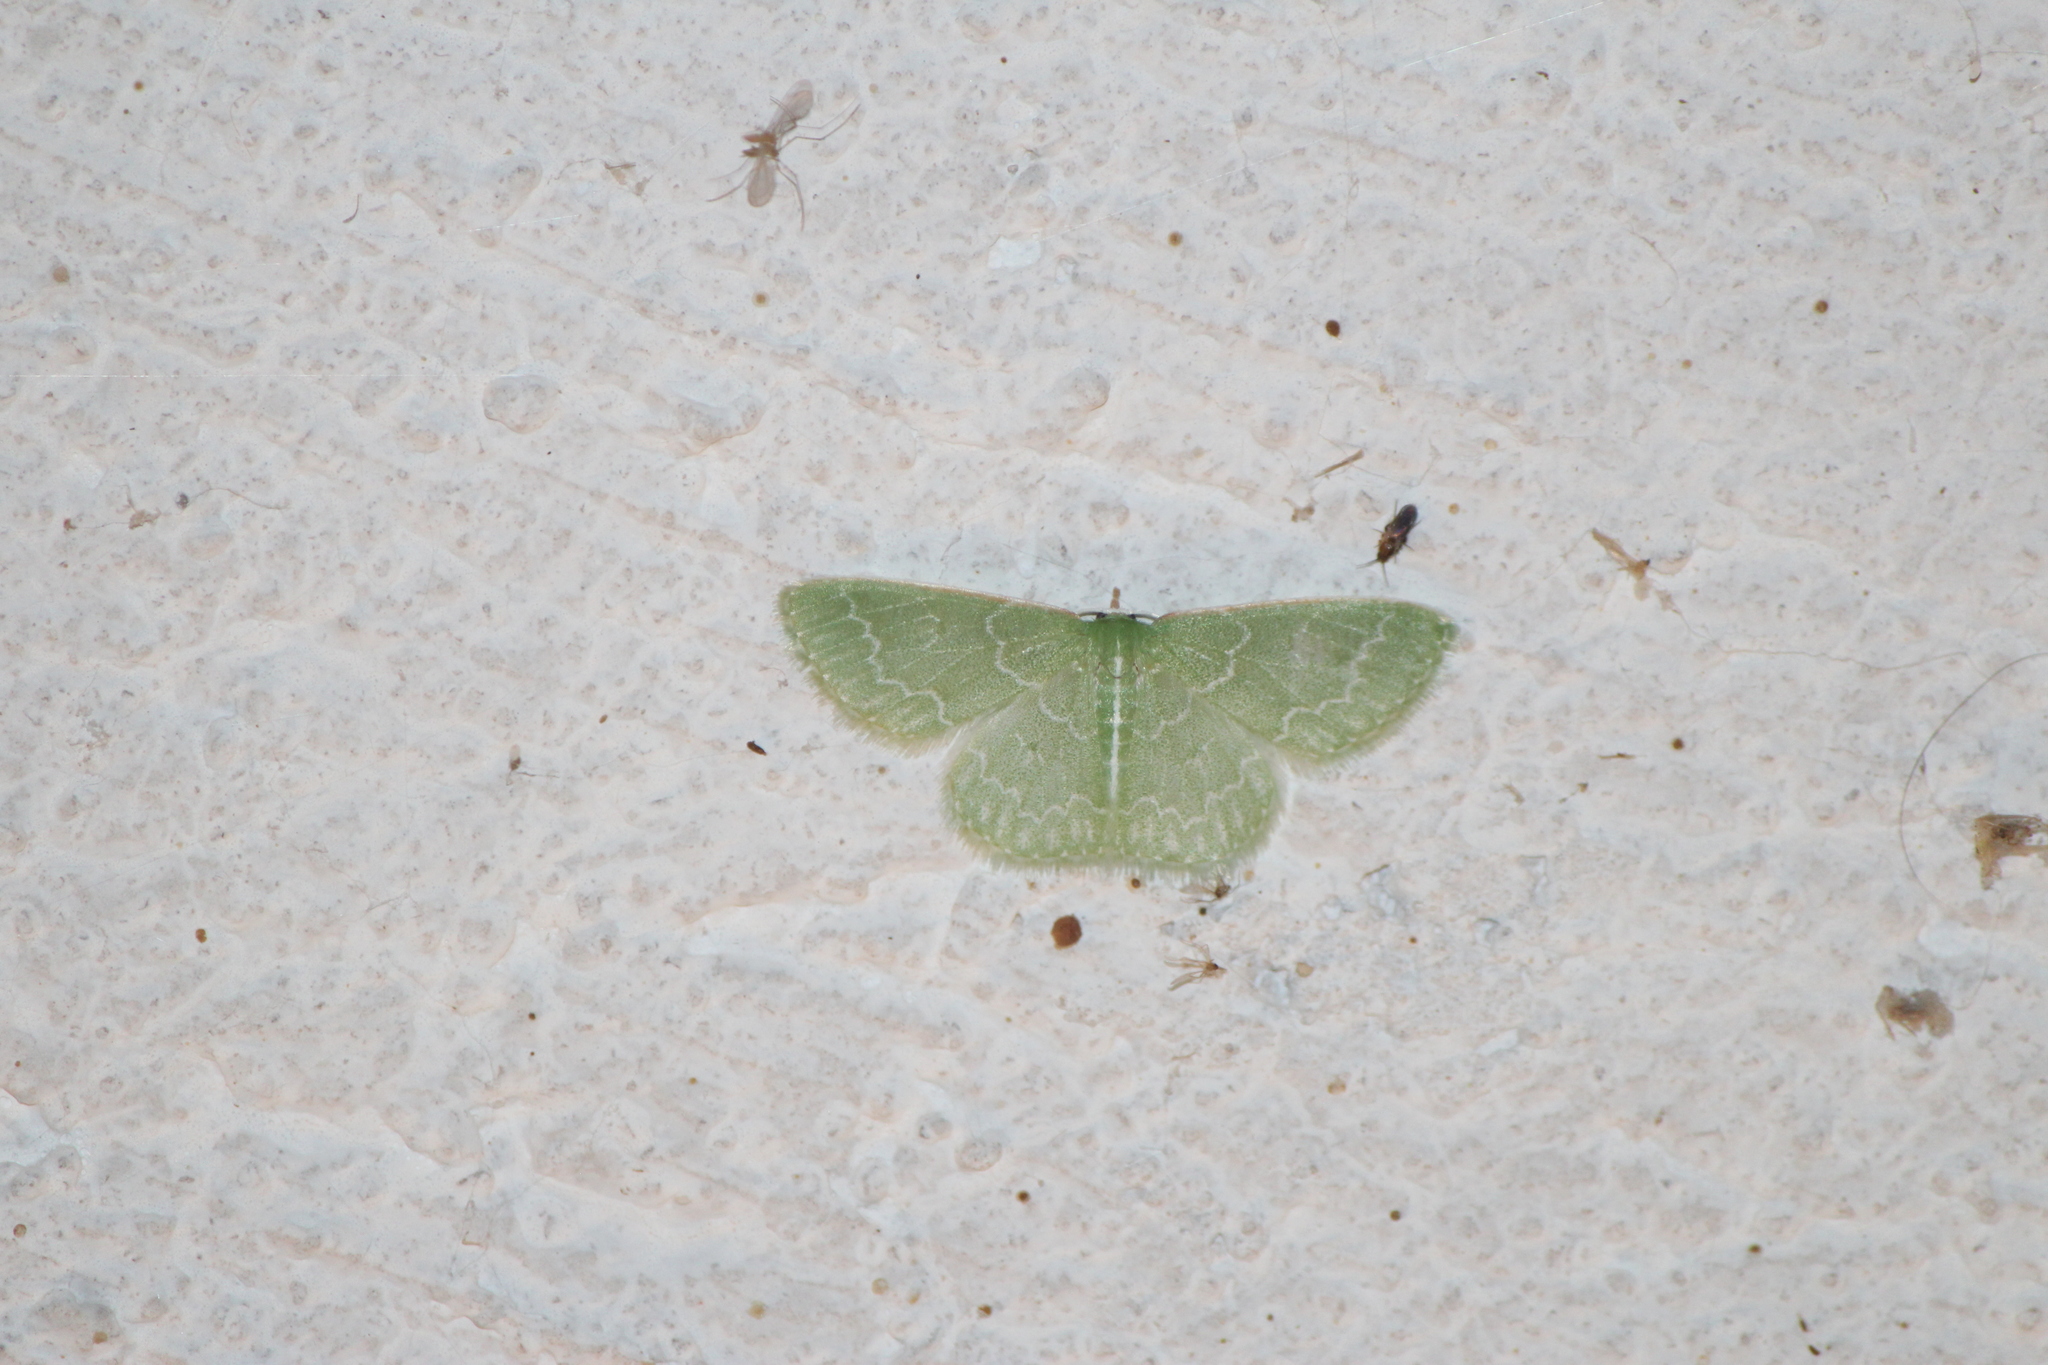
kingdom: Animalia
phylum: Arthropoda
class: Insecta
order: Lepidoptera
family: Geometridae
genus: Synchlora
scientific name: Synchlora frondaria
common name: Southern emerald
